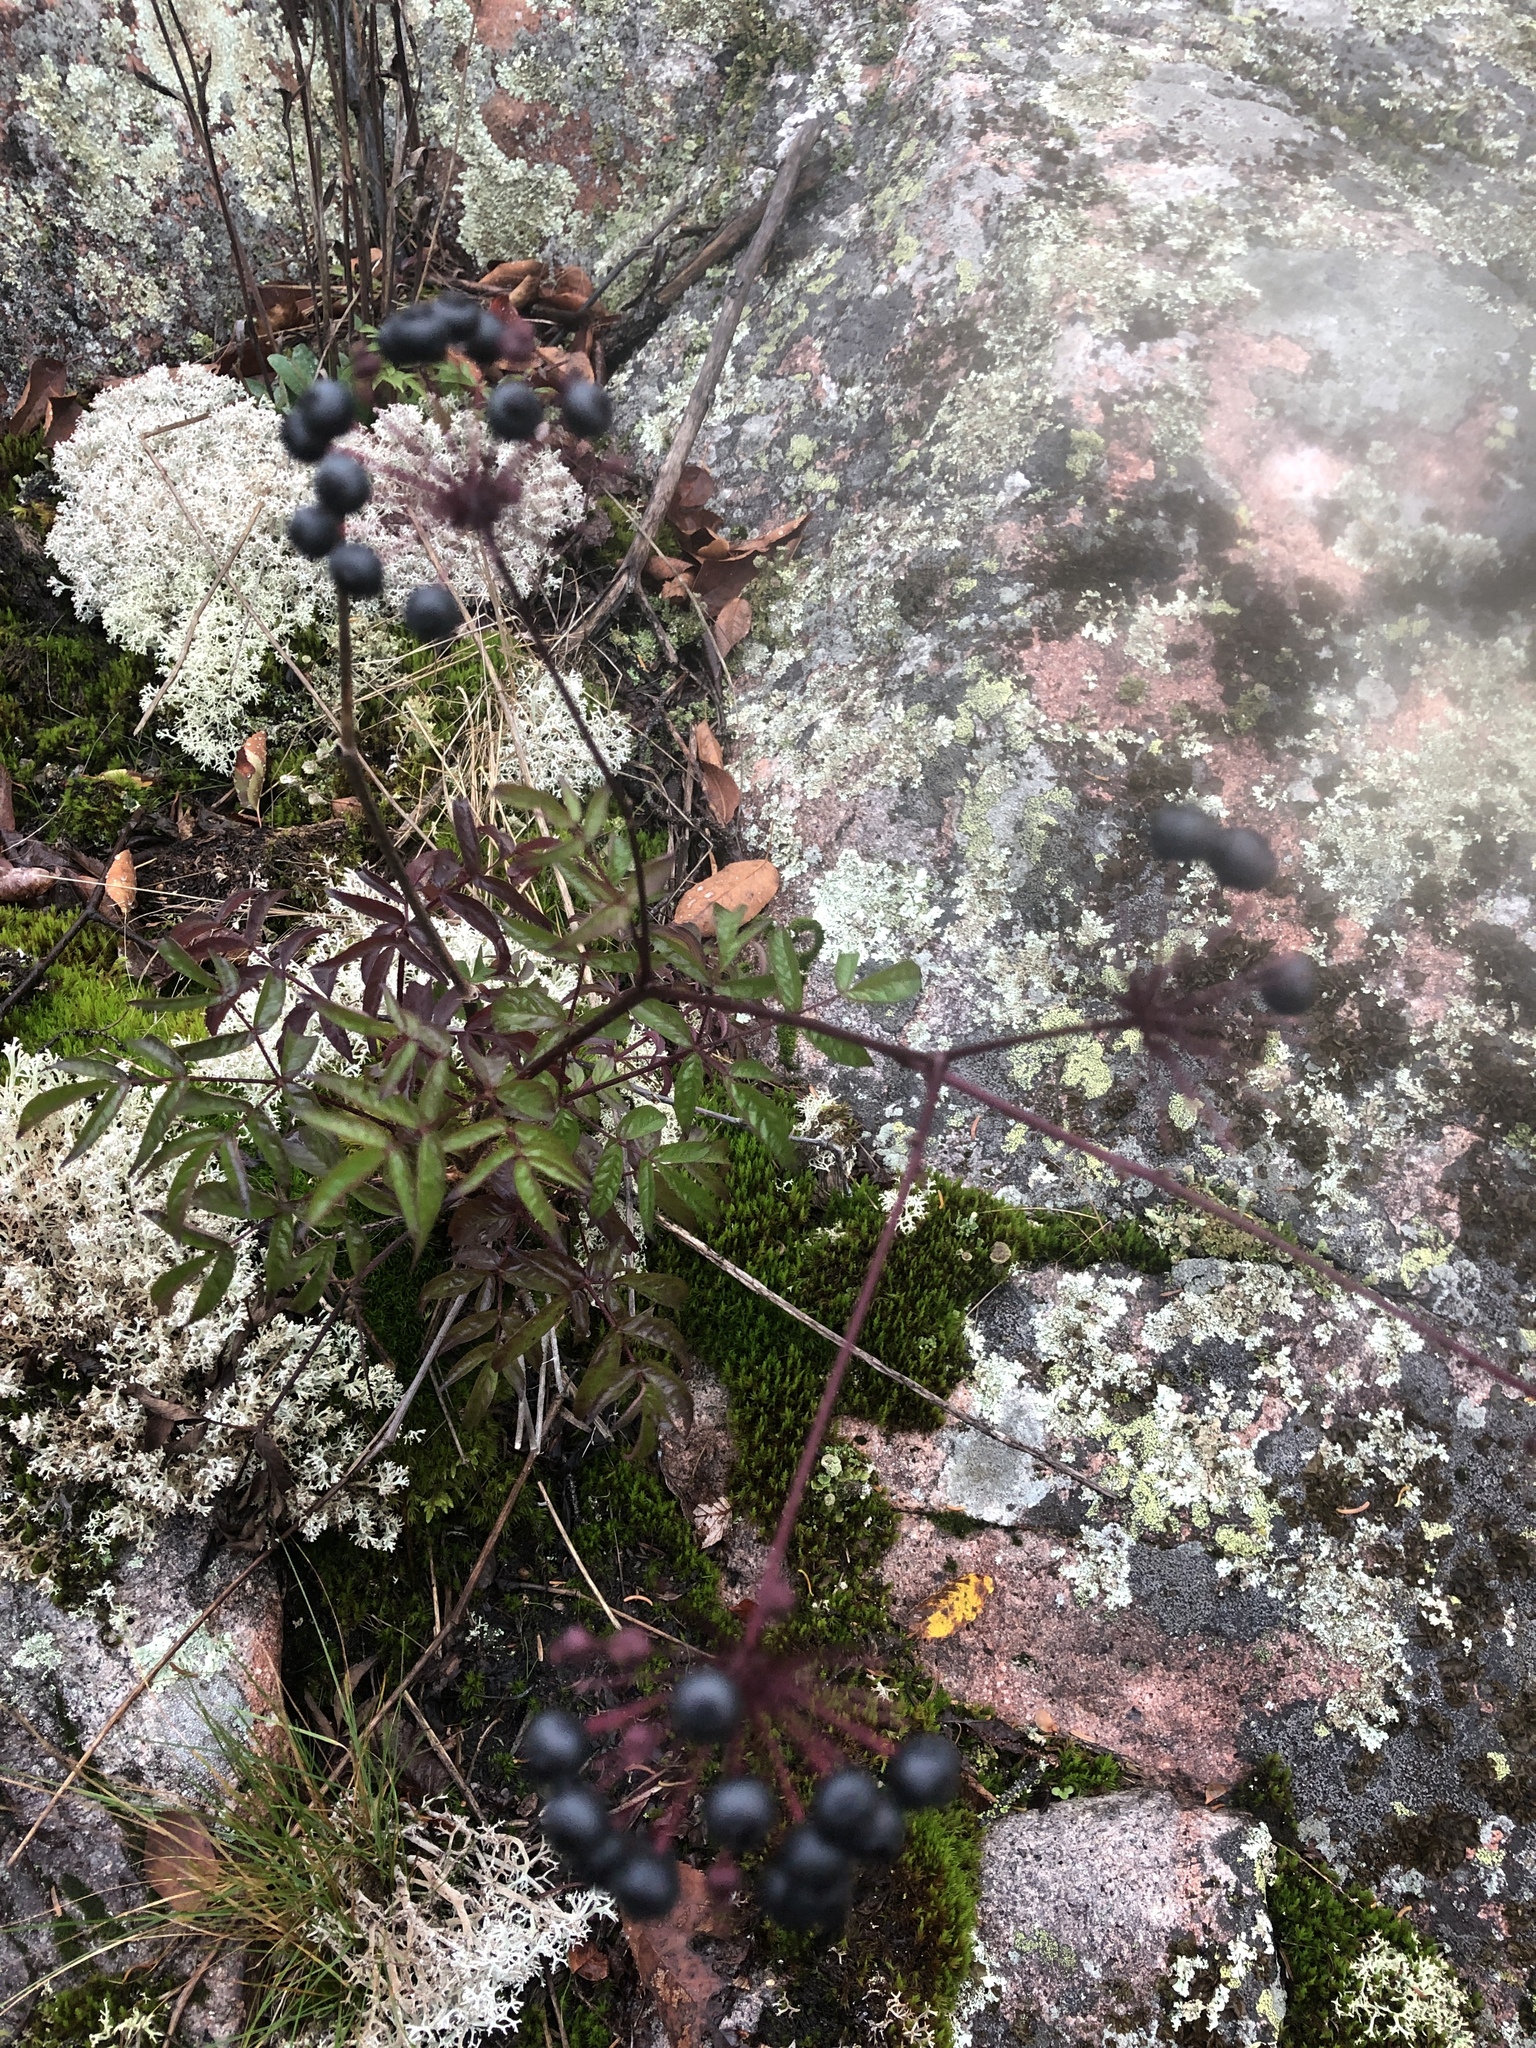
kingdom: Plantae
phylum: Tracheophyta
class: Magnoliopsida
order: Apiales
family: Araliaceae
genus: Aralia
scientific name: Aralia hispida
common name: Bristly sarsaparilla
